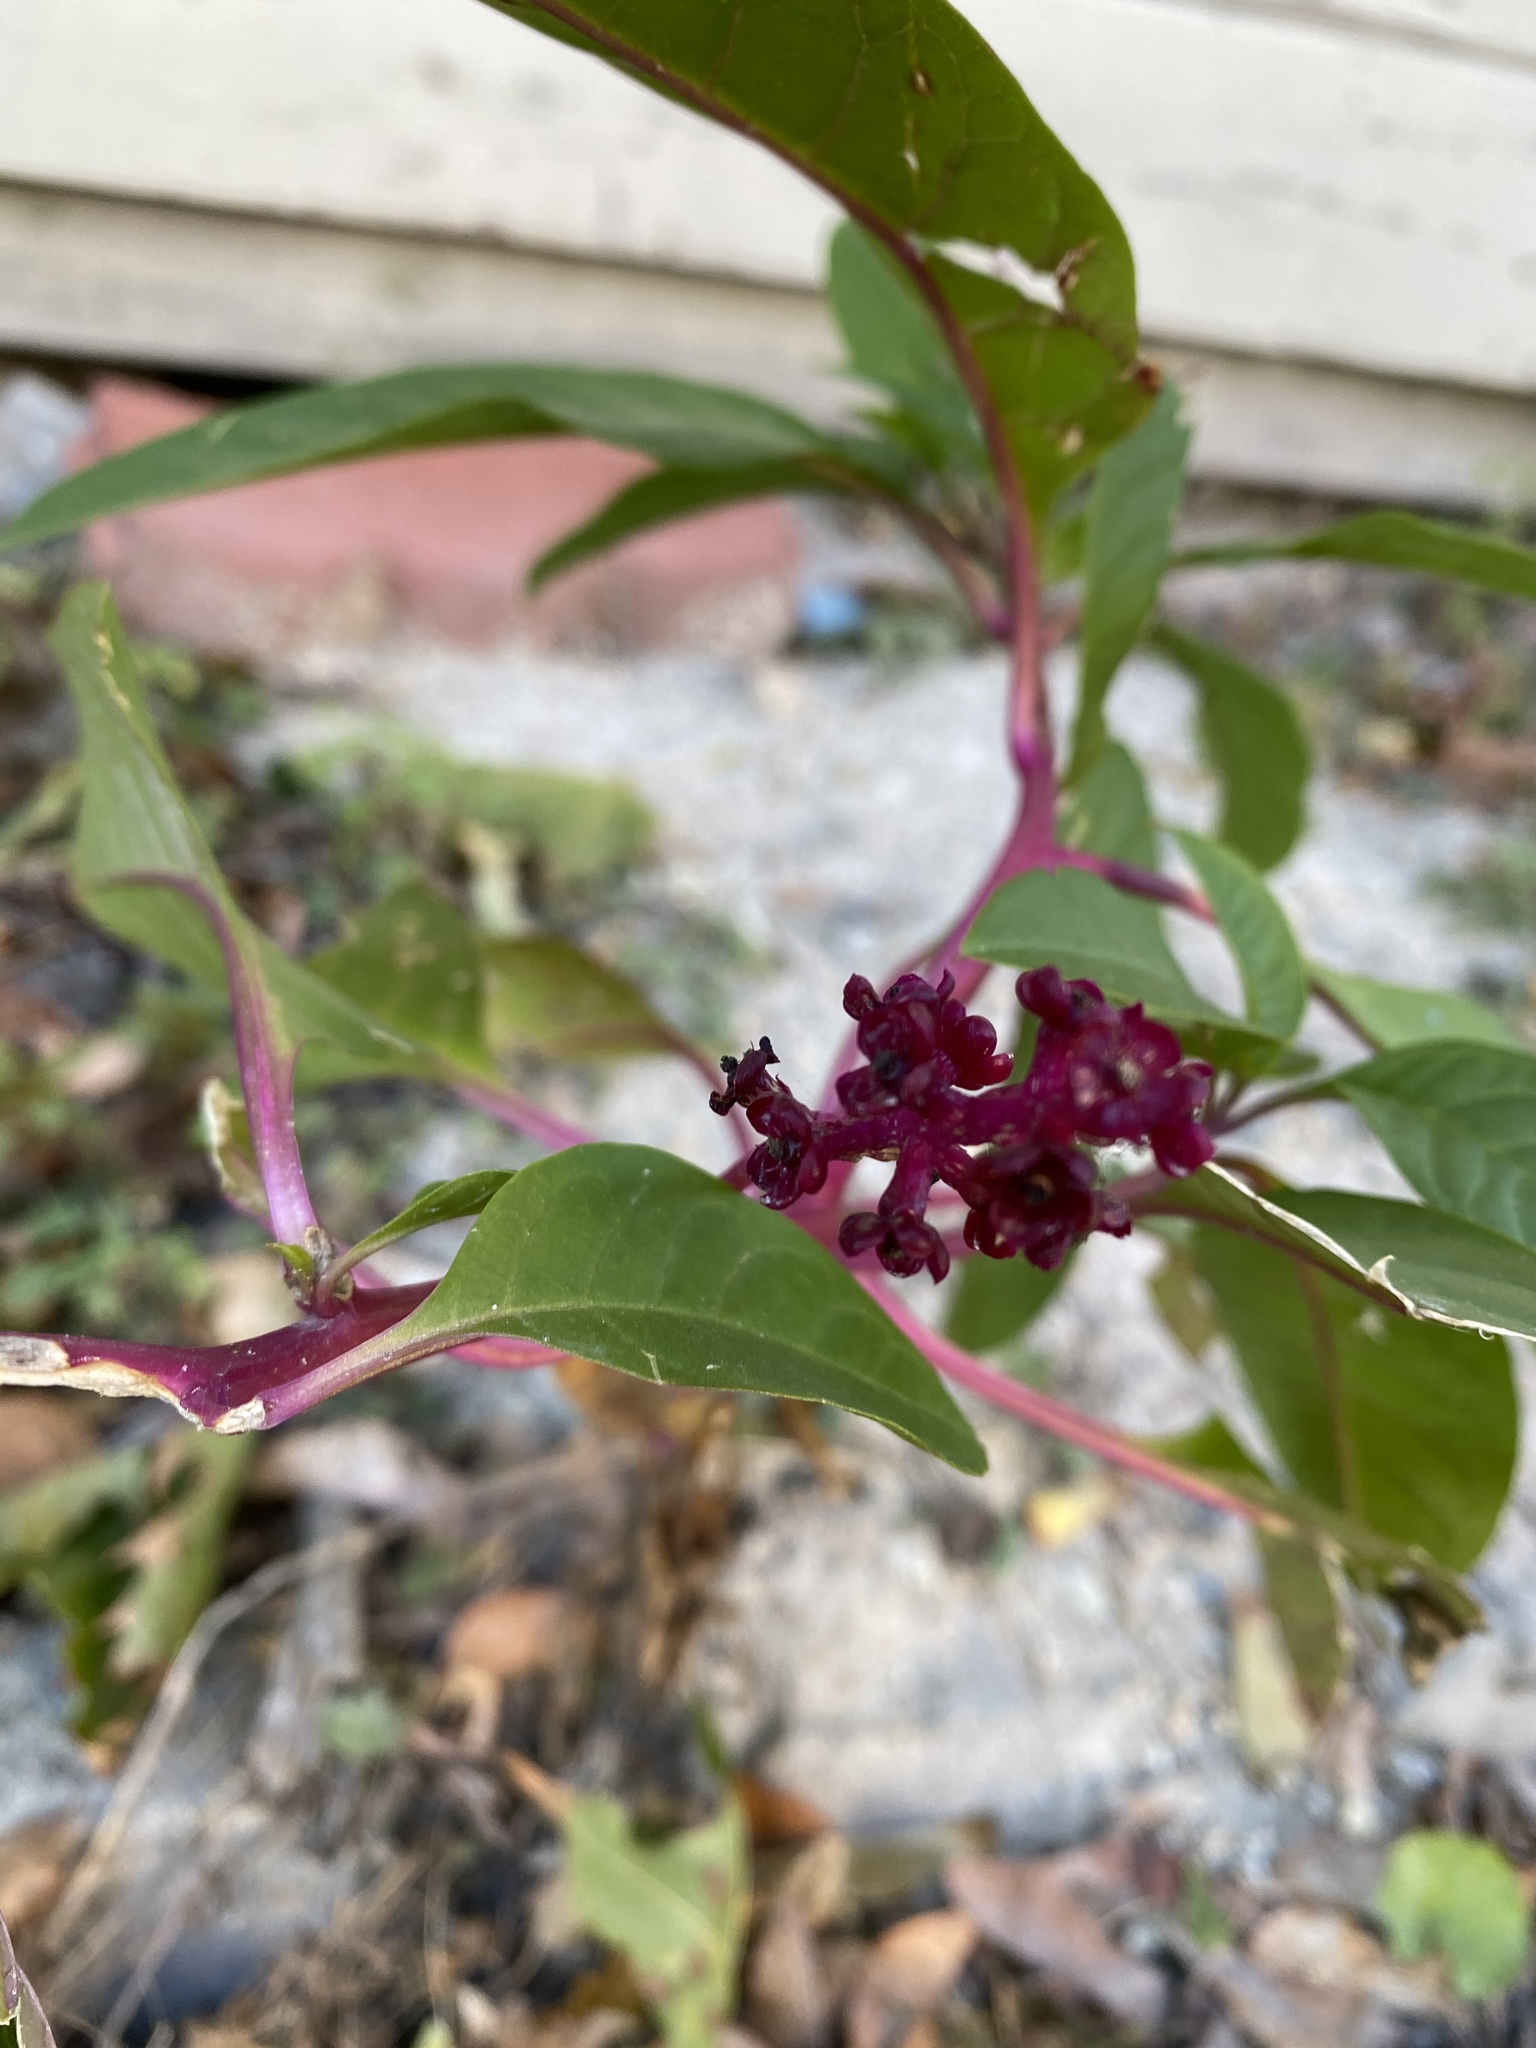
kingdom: Plantae
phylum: Tracheophyta
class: Magnoliopsida
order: Caryophyllales
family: Phytolaccaceae
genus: Phytolacca
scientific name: Phytolacca americana
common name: American pokeweed
